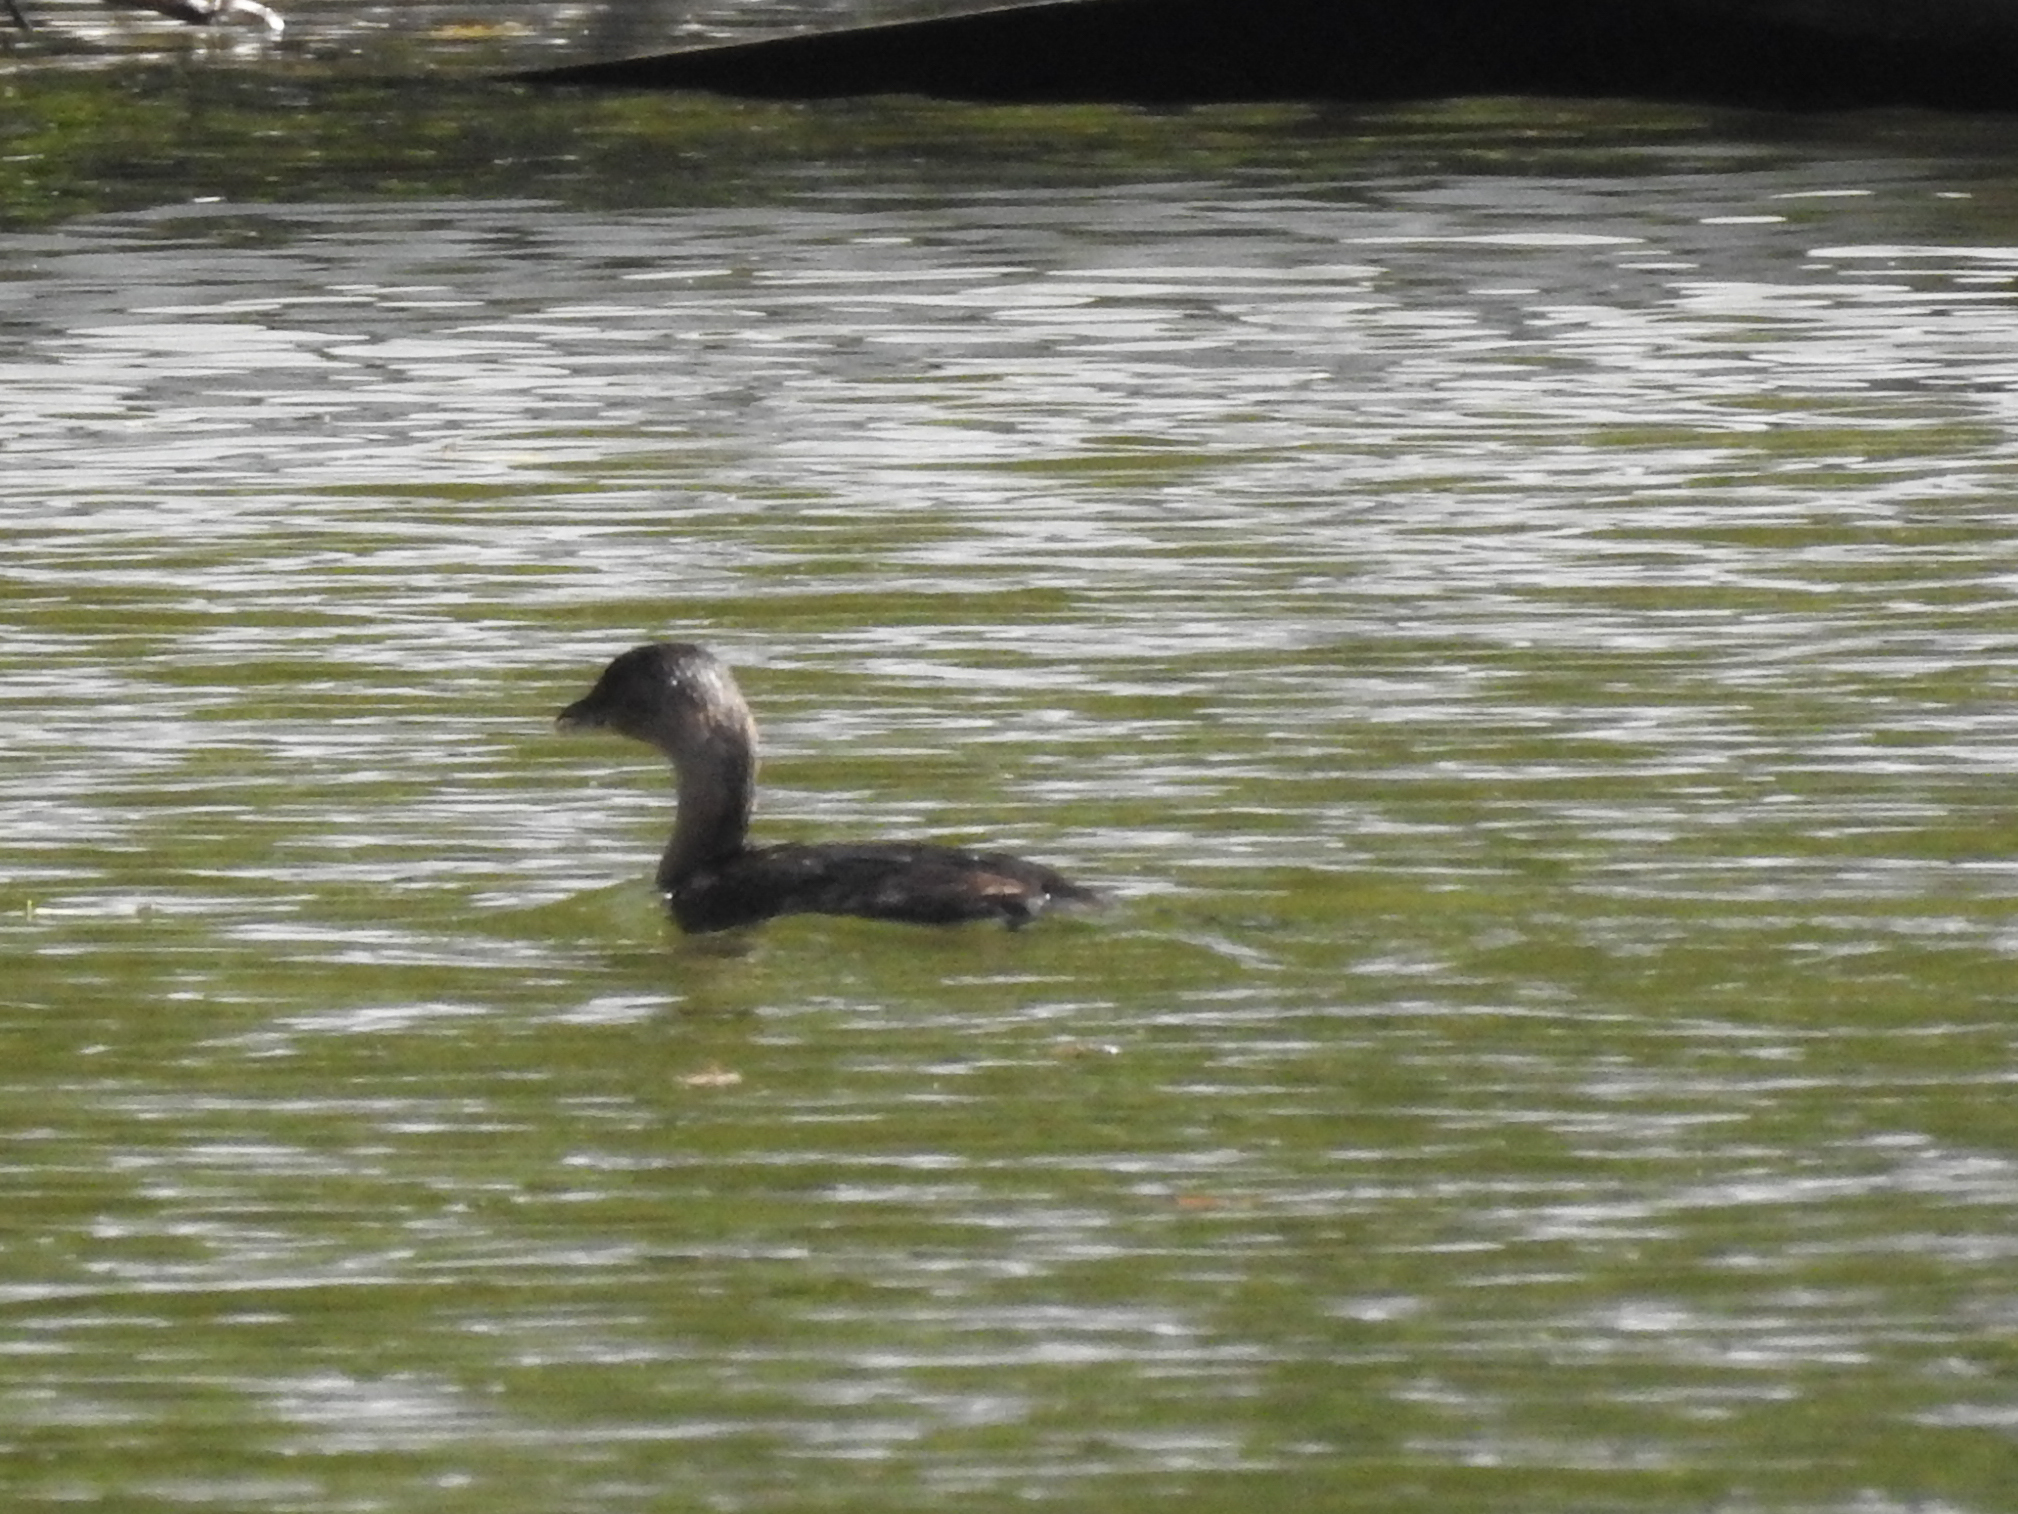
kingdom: Animalia
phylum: Chordata
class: Aves
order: Podicipediformes
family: Podicipedidae
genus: Podilymbus
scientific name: Podilymbus podiceps
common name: Pied-billed grebe
